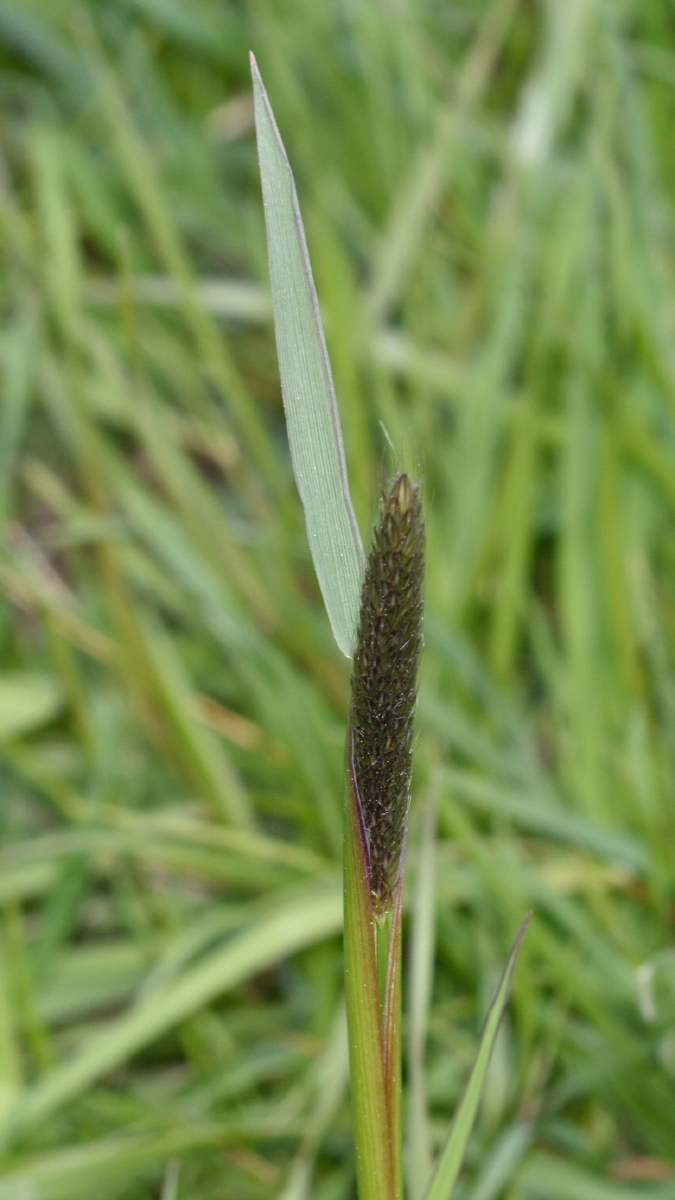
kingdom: Plantae
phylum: Tracheophyta
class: Liliopsida
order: Poales
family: Poaceae
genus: Alopecurus
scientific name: Alopecurus pratensis
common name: Meadow foxtail
